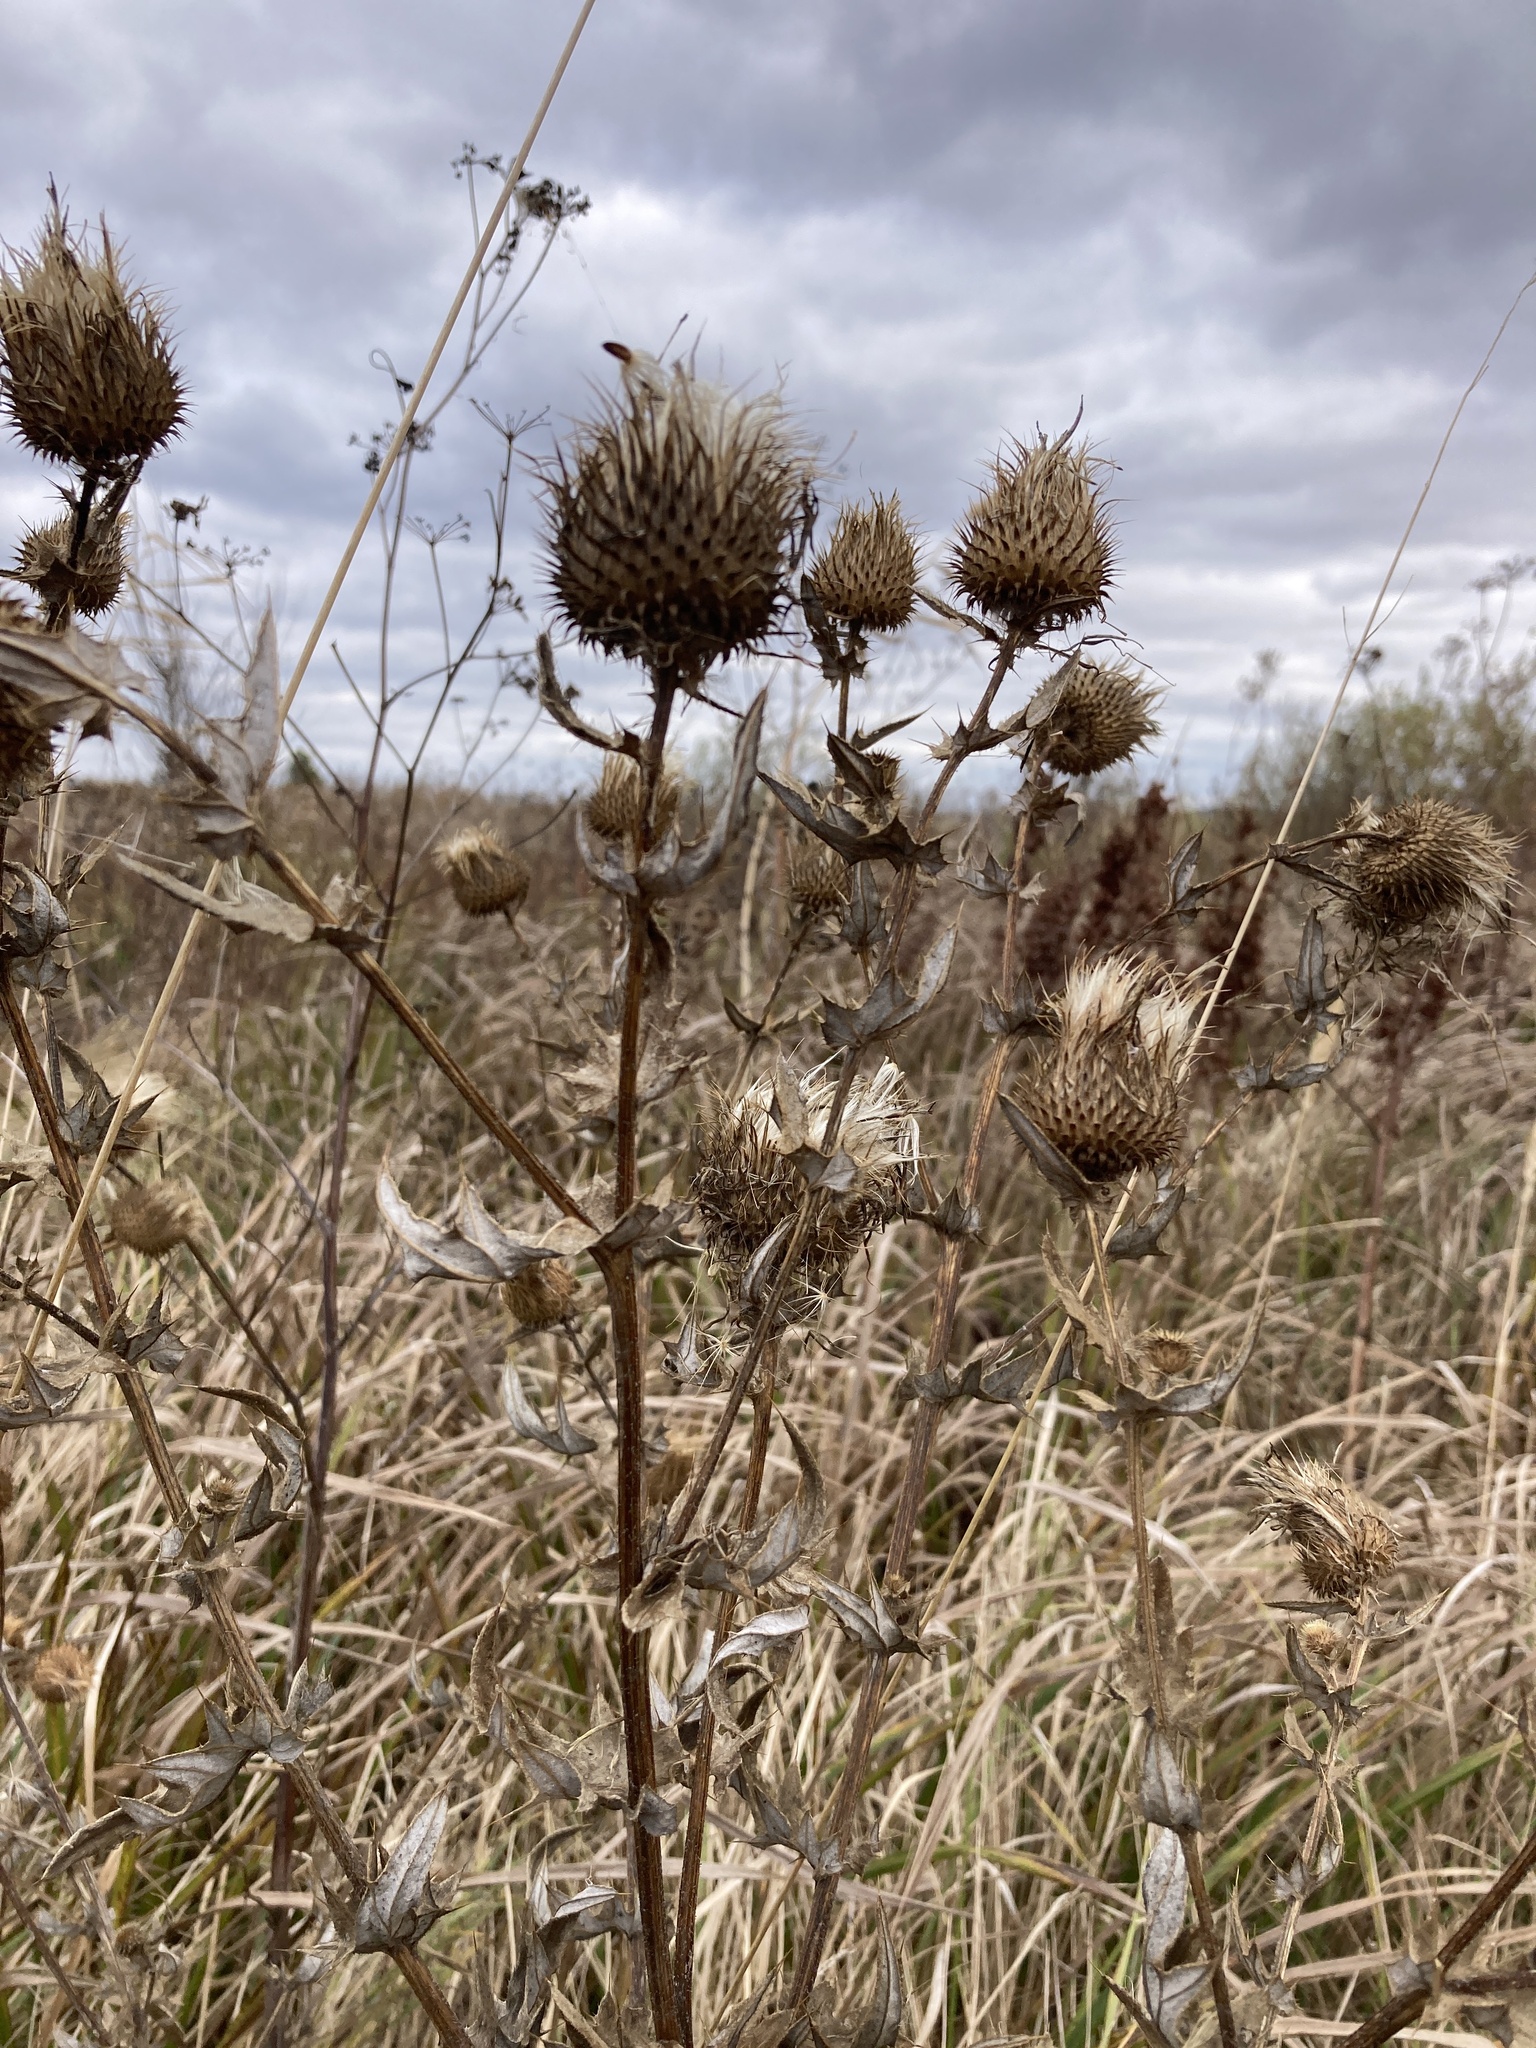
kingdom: Plantae
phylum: Tracheophyta
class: Magnoliopsida
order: Asterales
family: Asteraceae
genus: Cirsium
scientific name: Cirsium serrulatum
